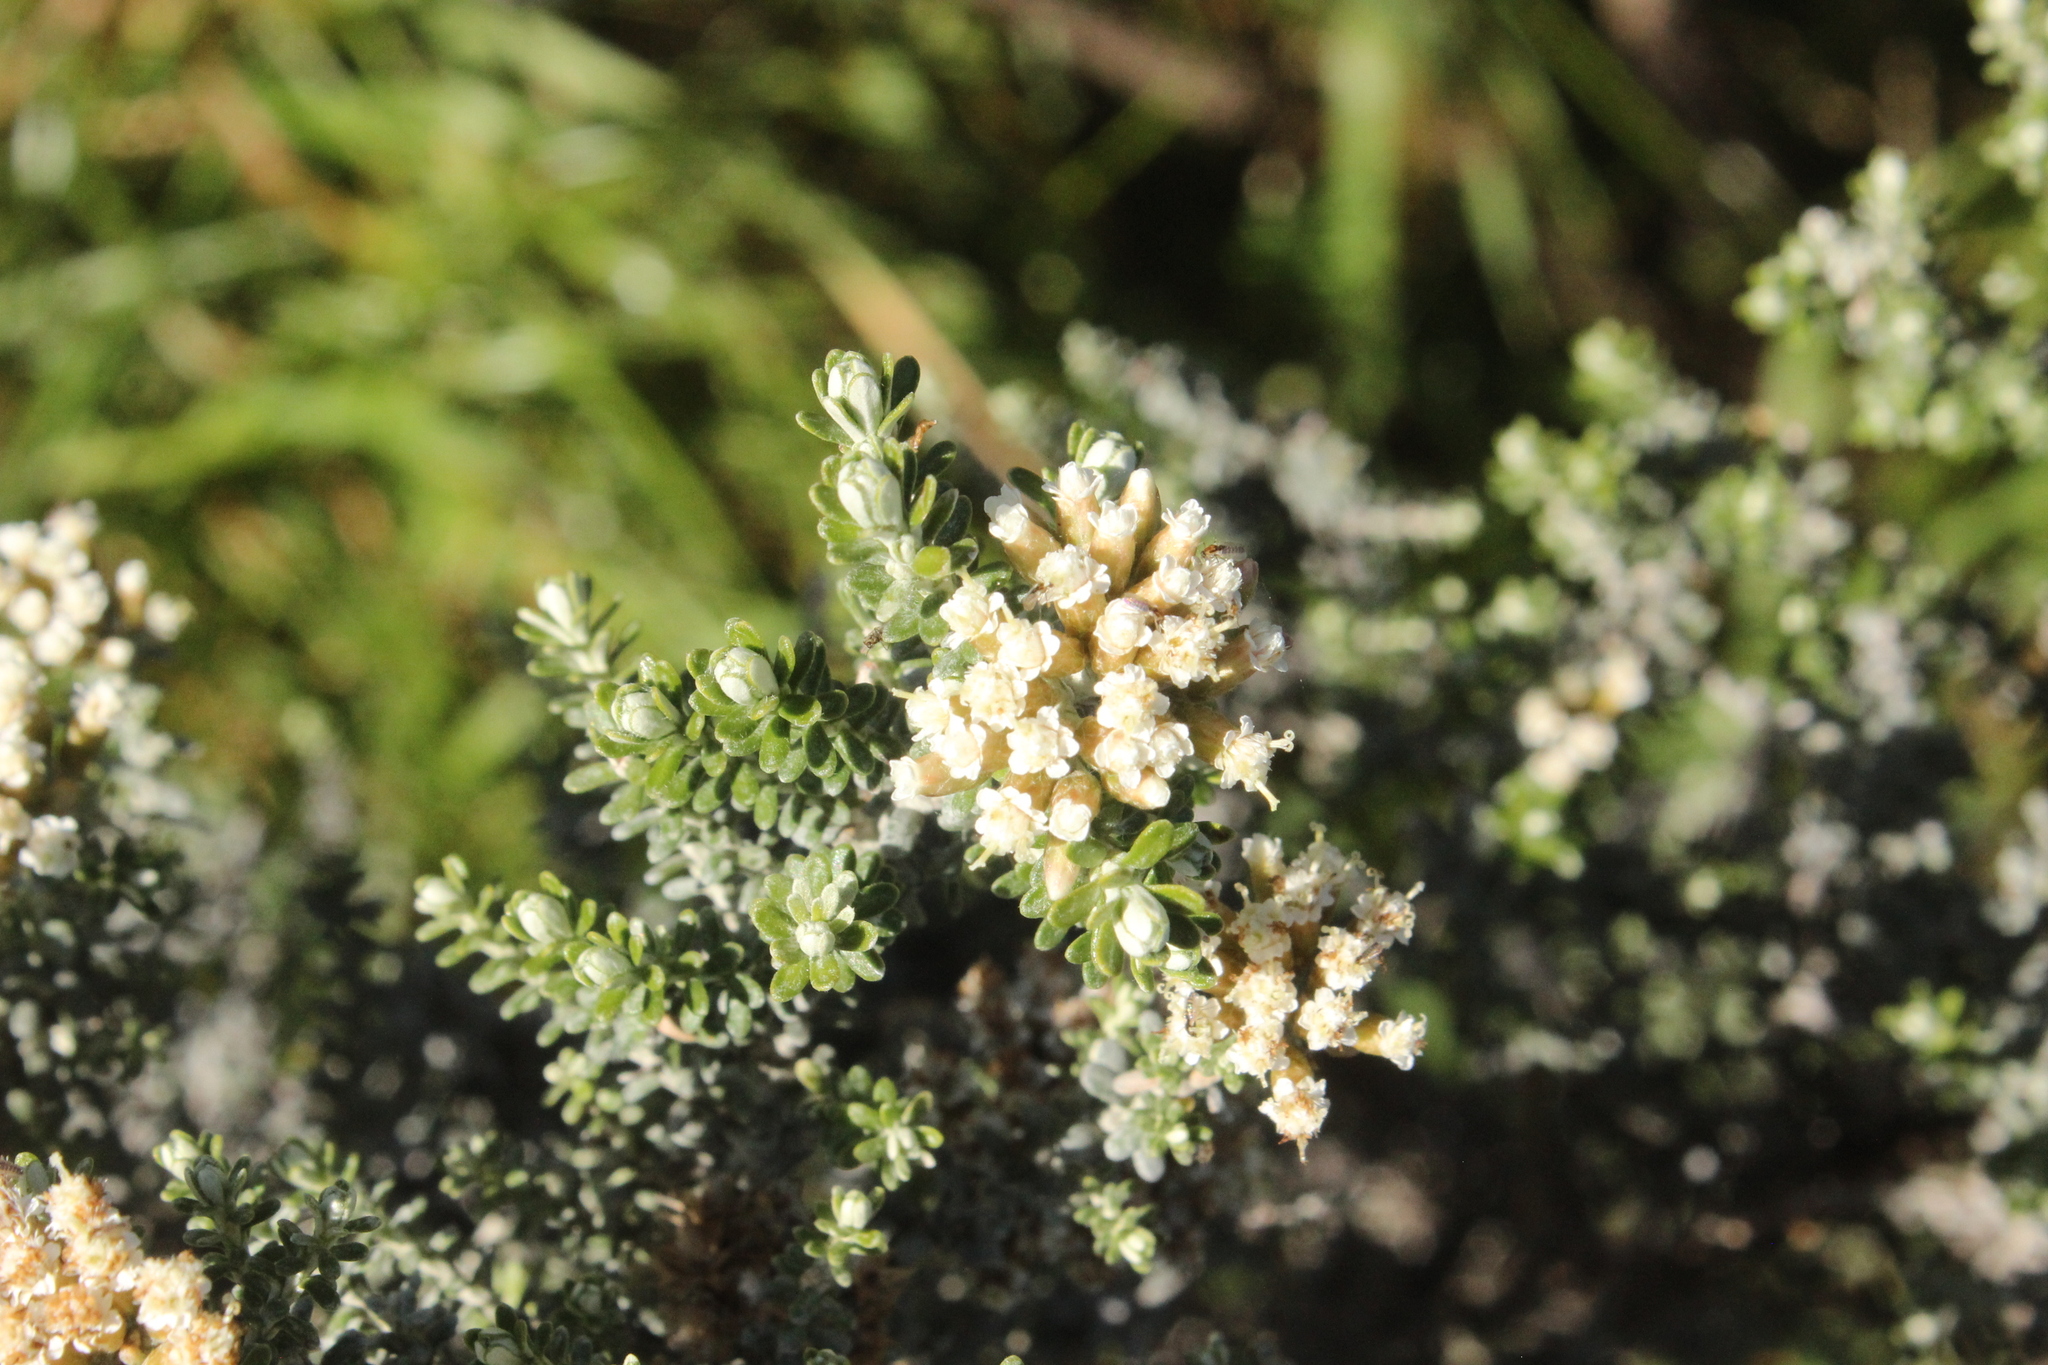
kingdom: Plantae
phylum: Tracheophyta
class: Magnoliopsida
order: Asterales
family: Asteraceae
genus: Ozothamnus
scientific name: Ozothamnus leptophyllus
